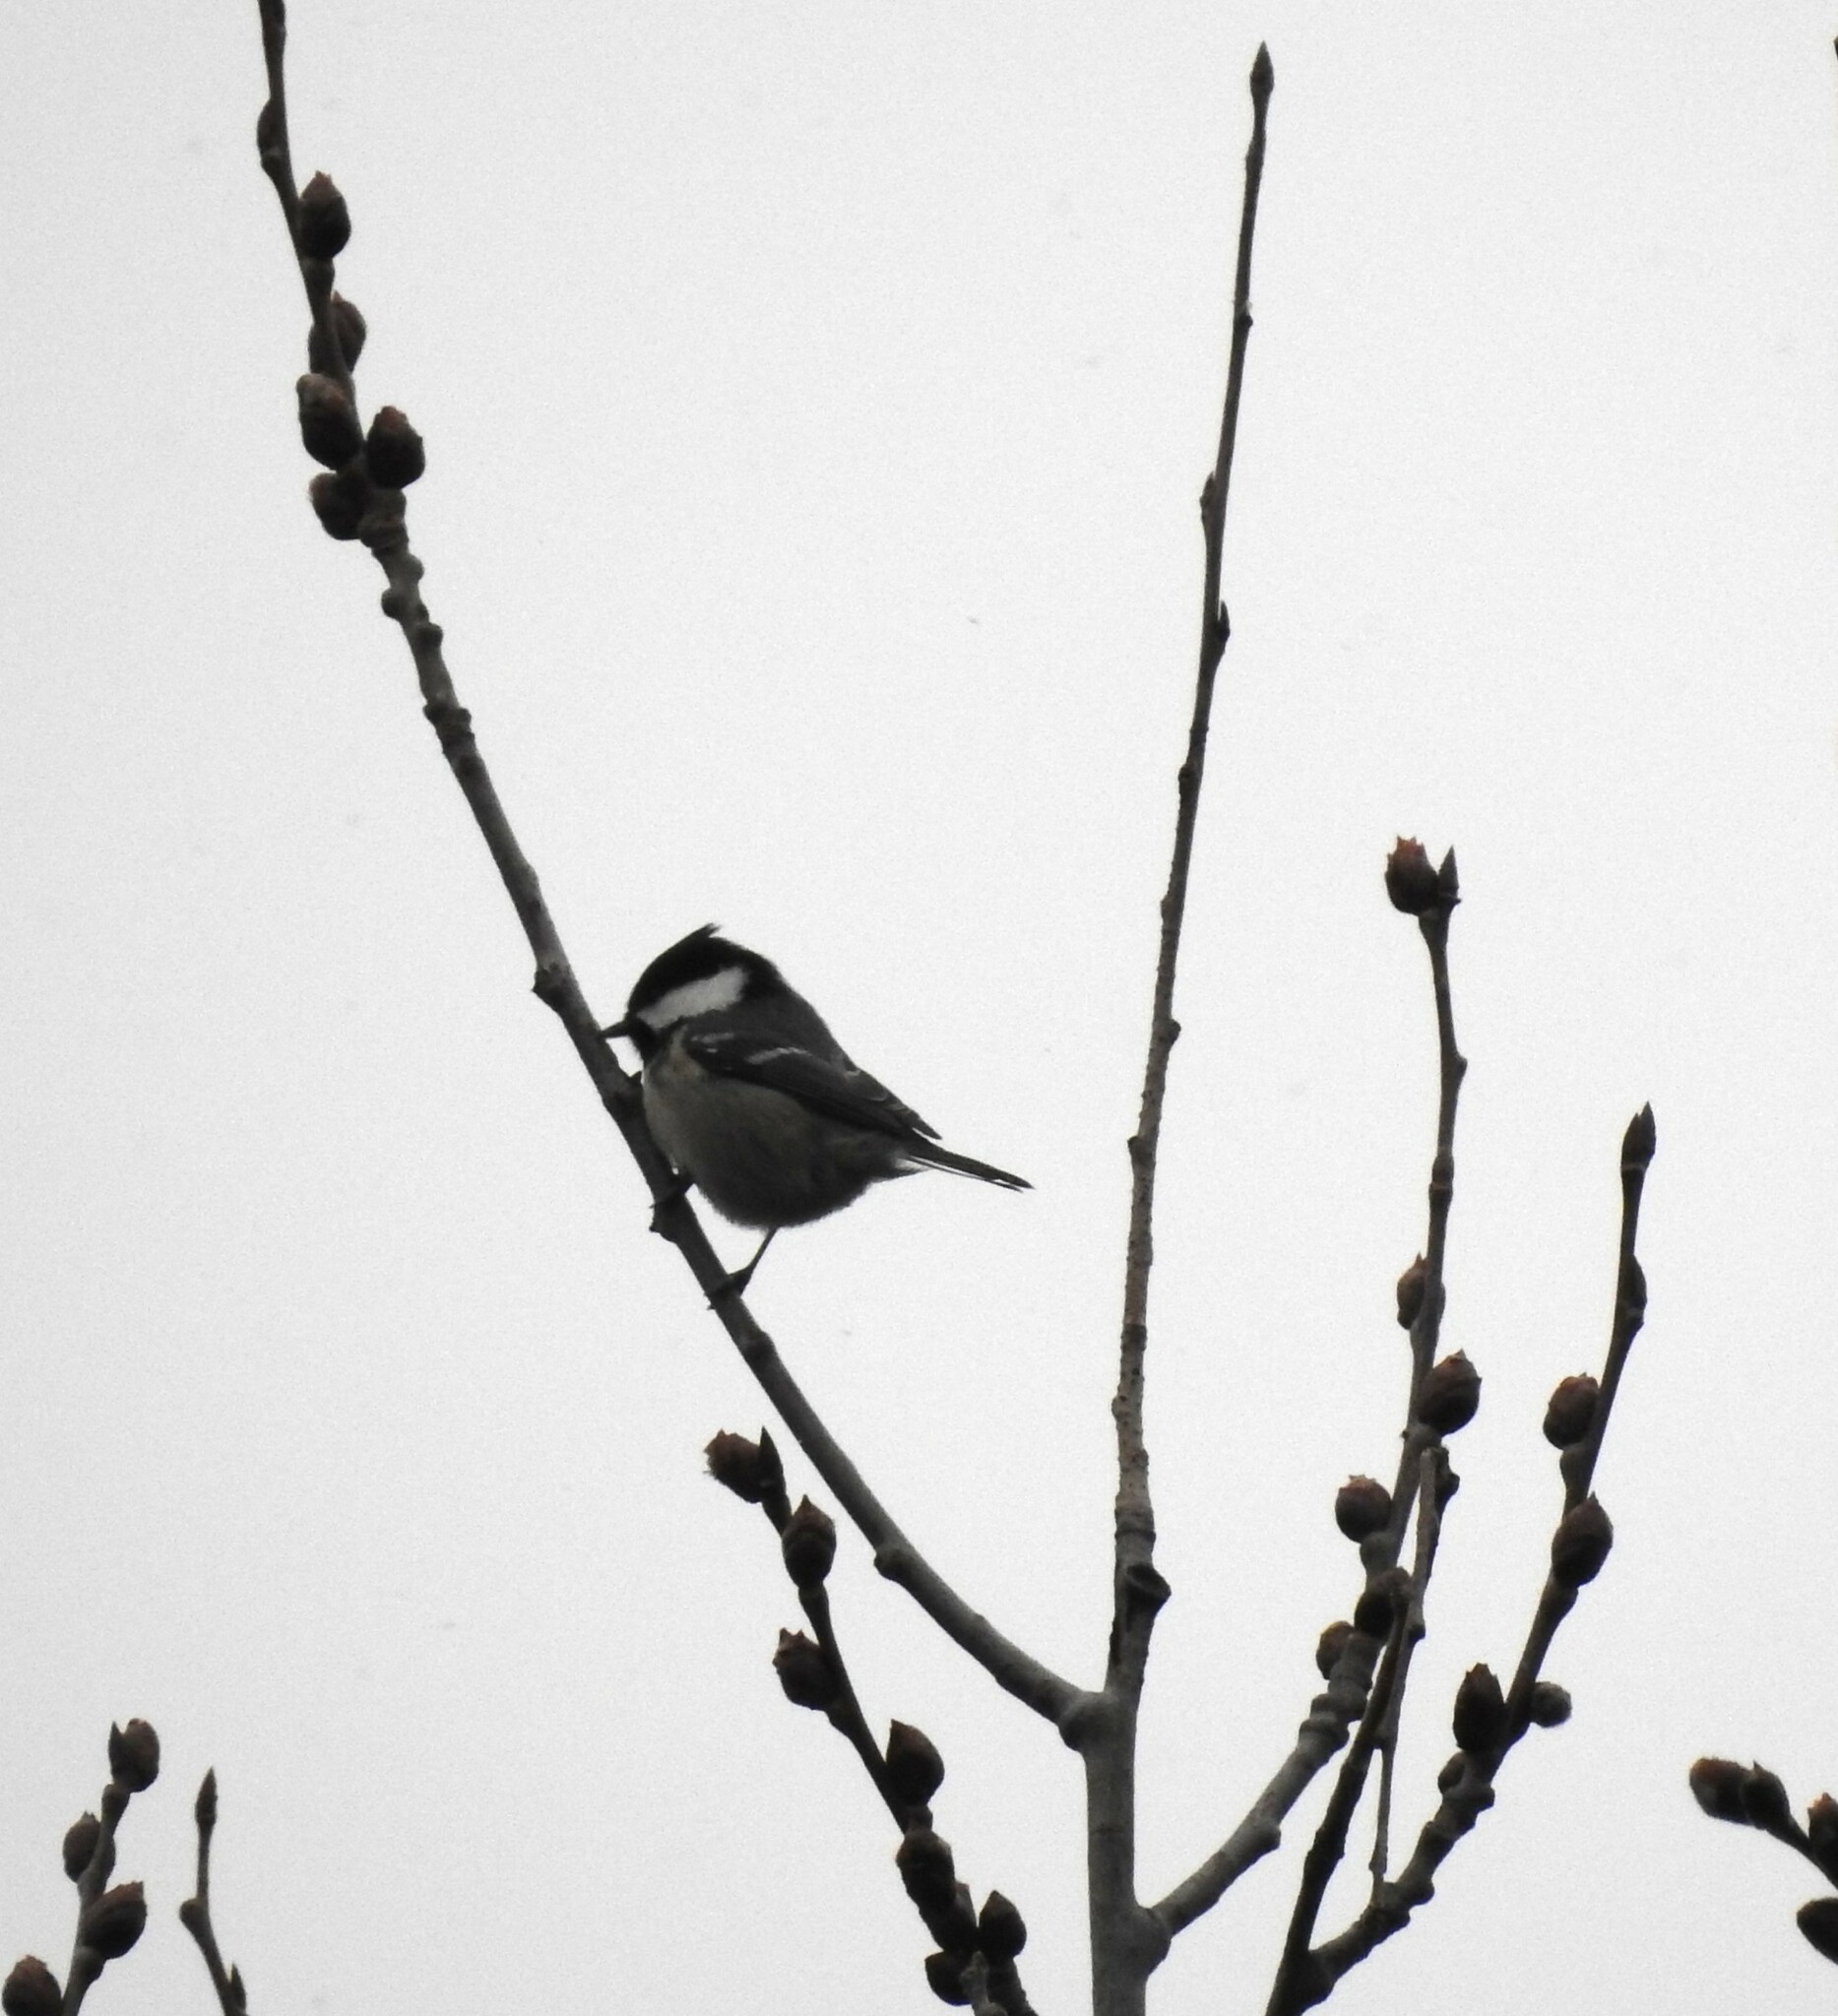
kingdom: Animalia
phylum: Chordata
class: Aves
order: Passeriformes
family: Paridae
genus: Periparus
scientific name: Periparus ater
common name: Coal tit
